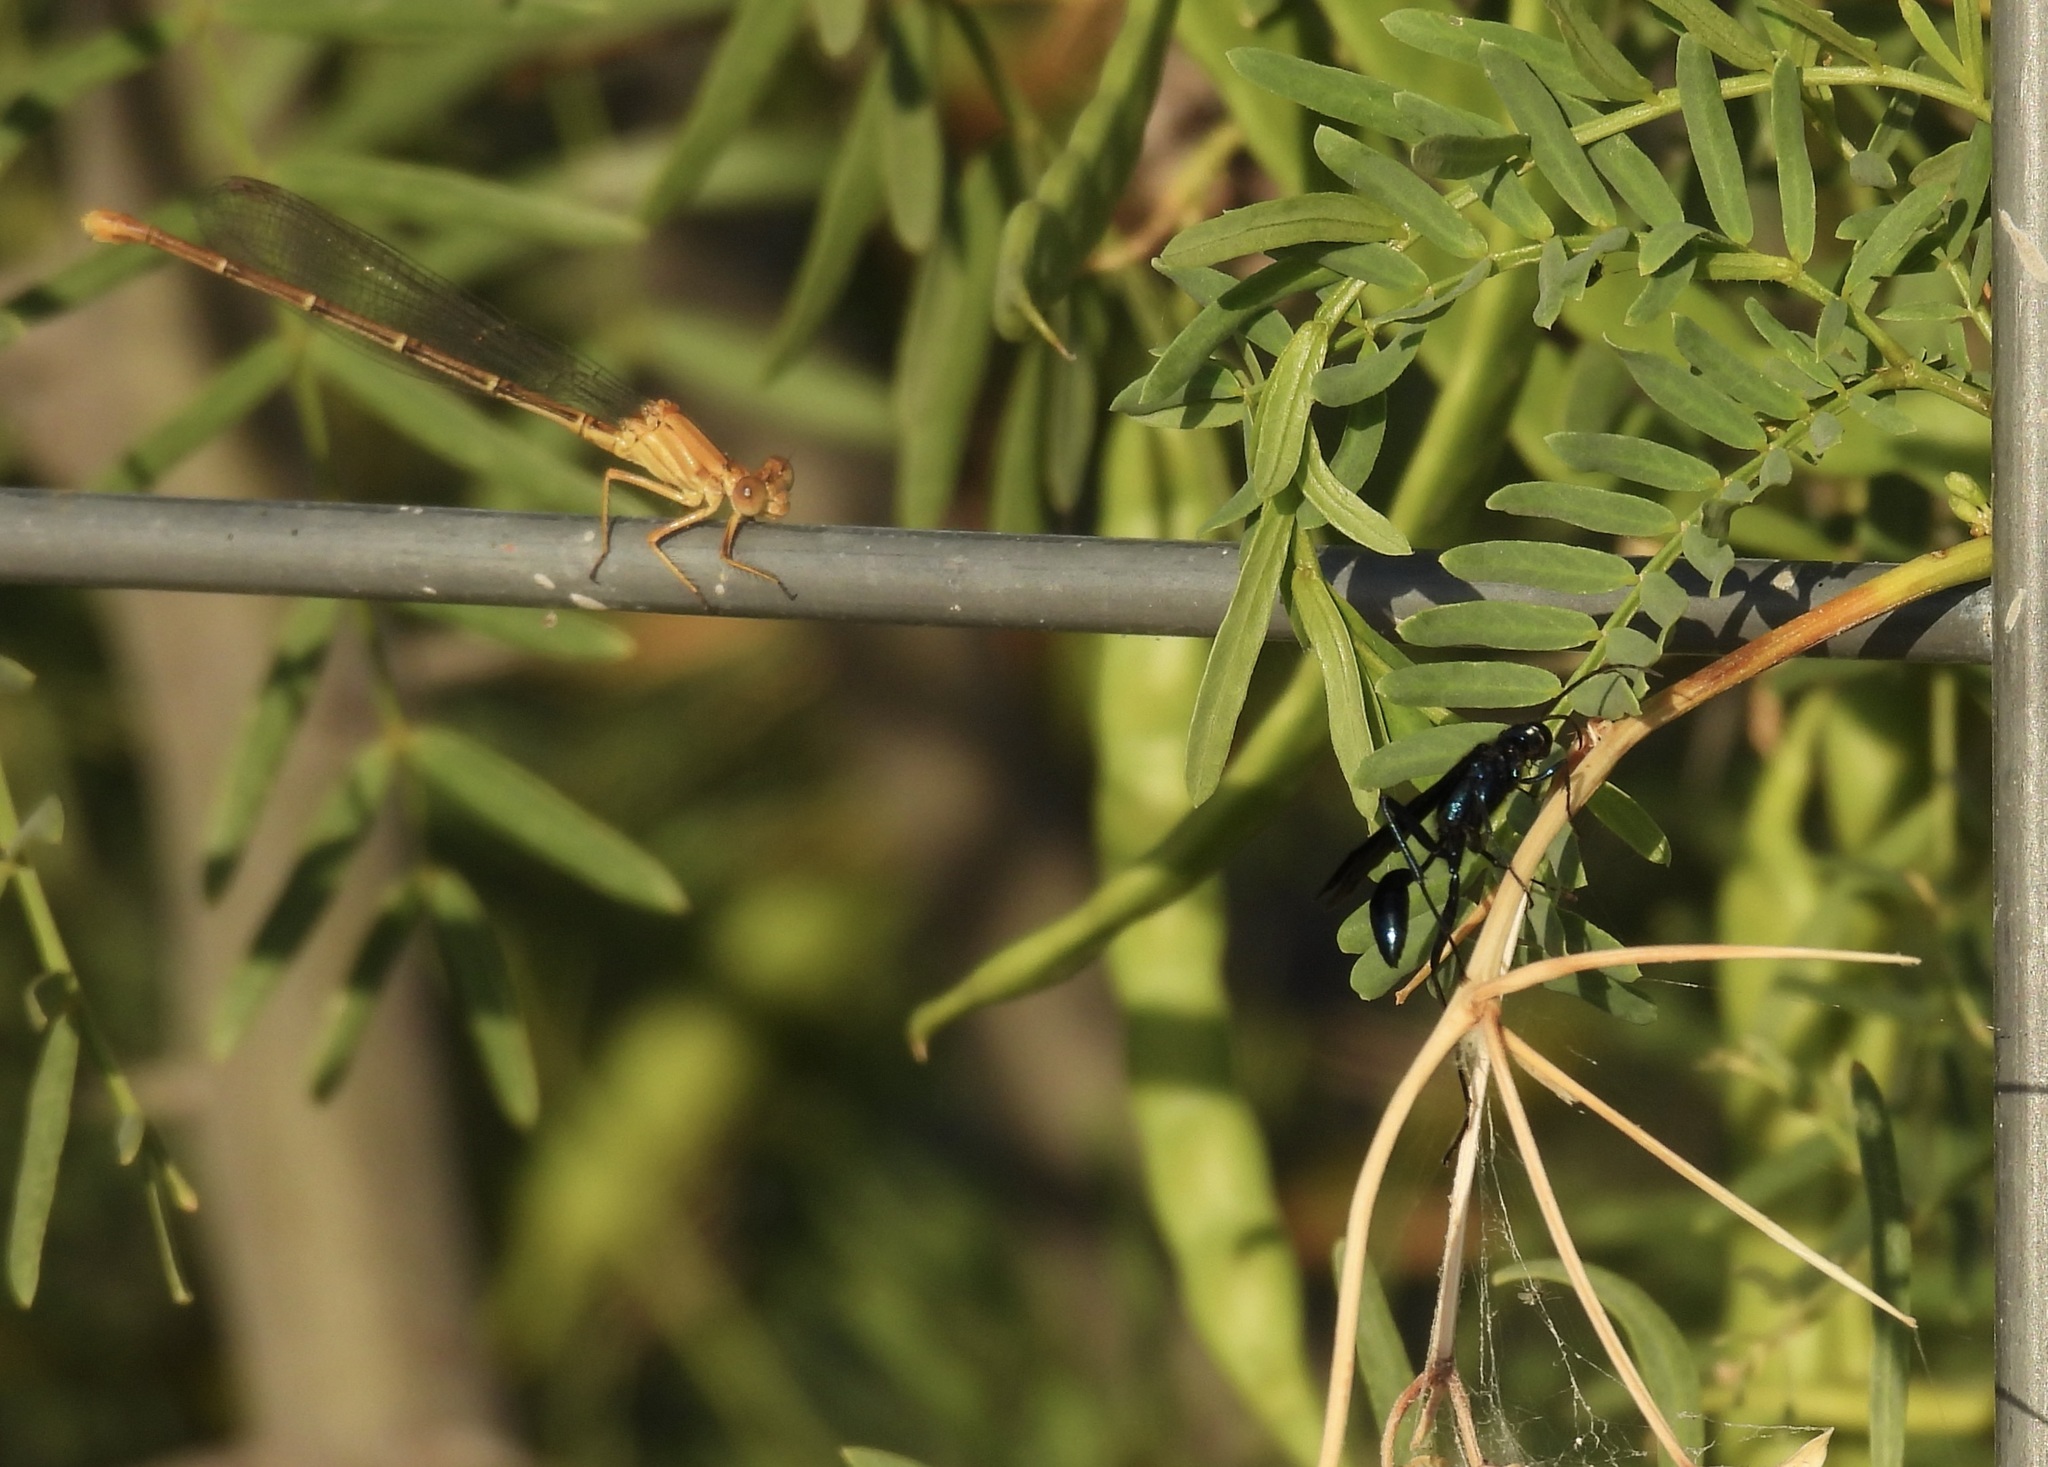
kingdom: Animalia
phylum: Arthropoda
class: Insecta
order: Hymenoptera
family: Sphecidae
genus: Chalybion
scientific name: Chalybion californicum
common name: Mud dauber
